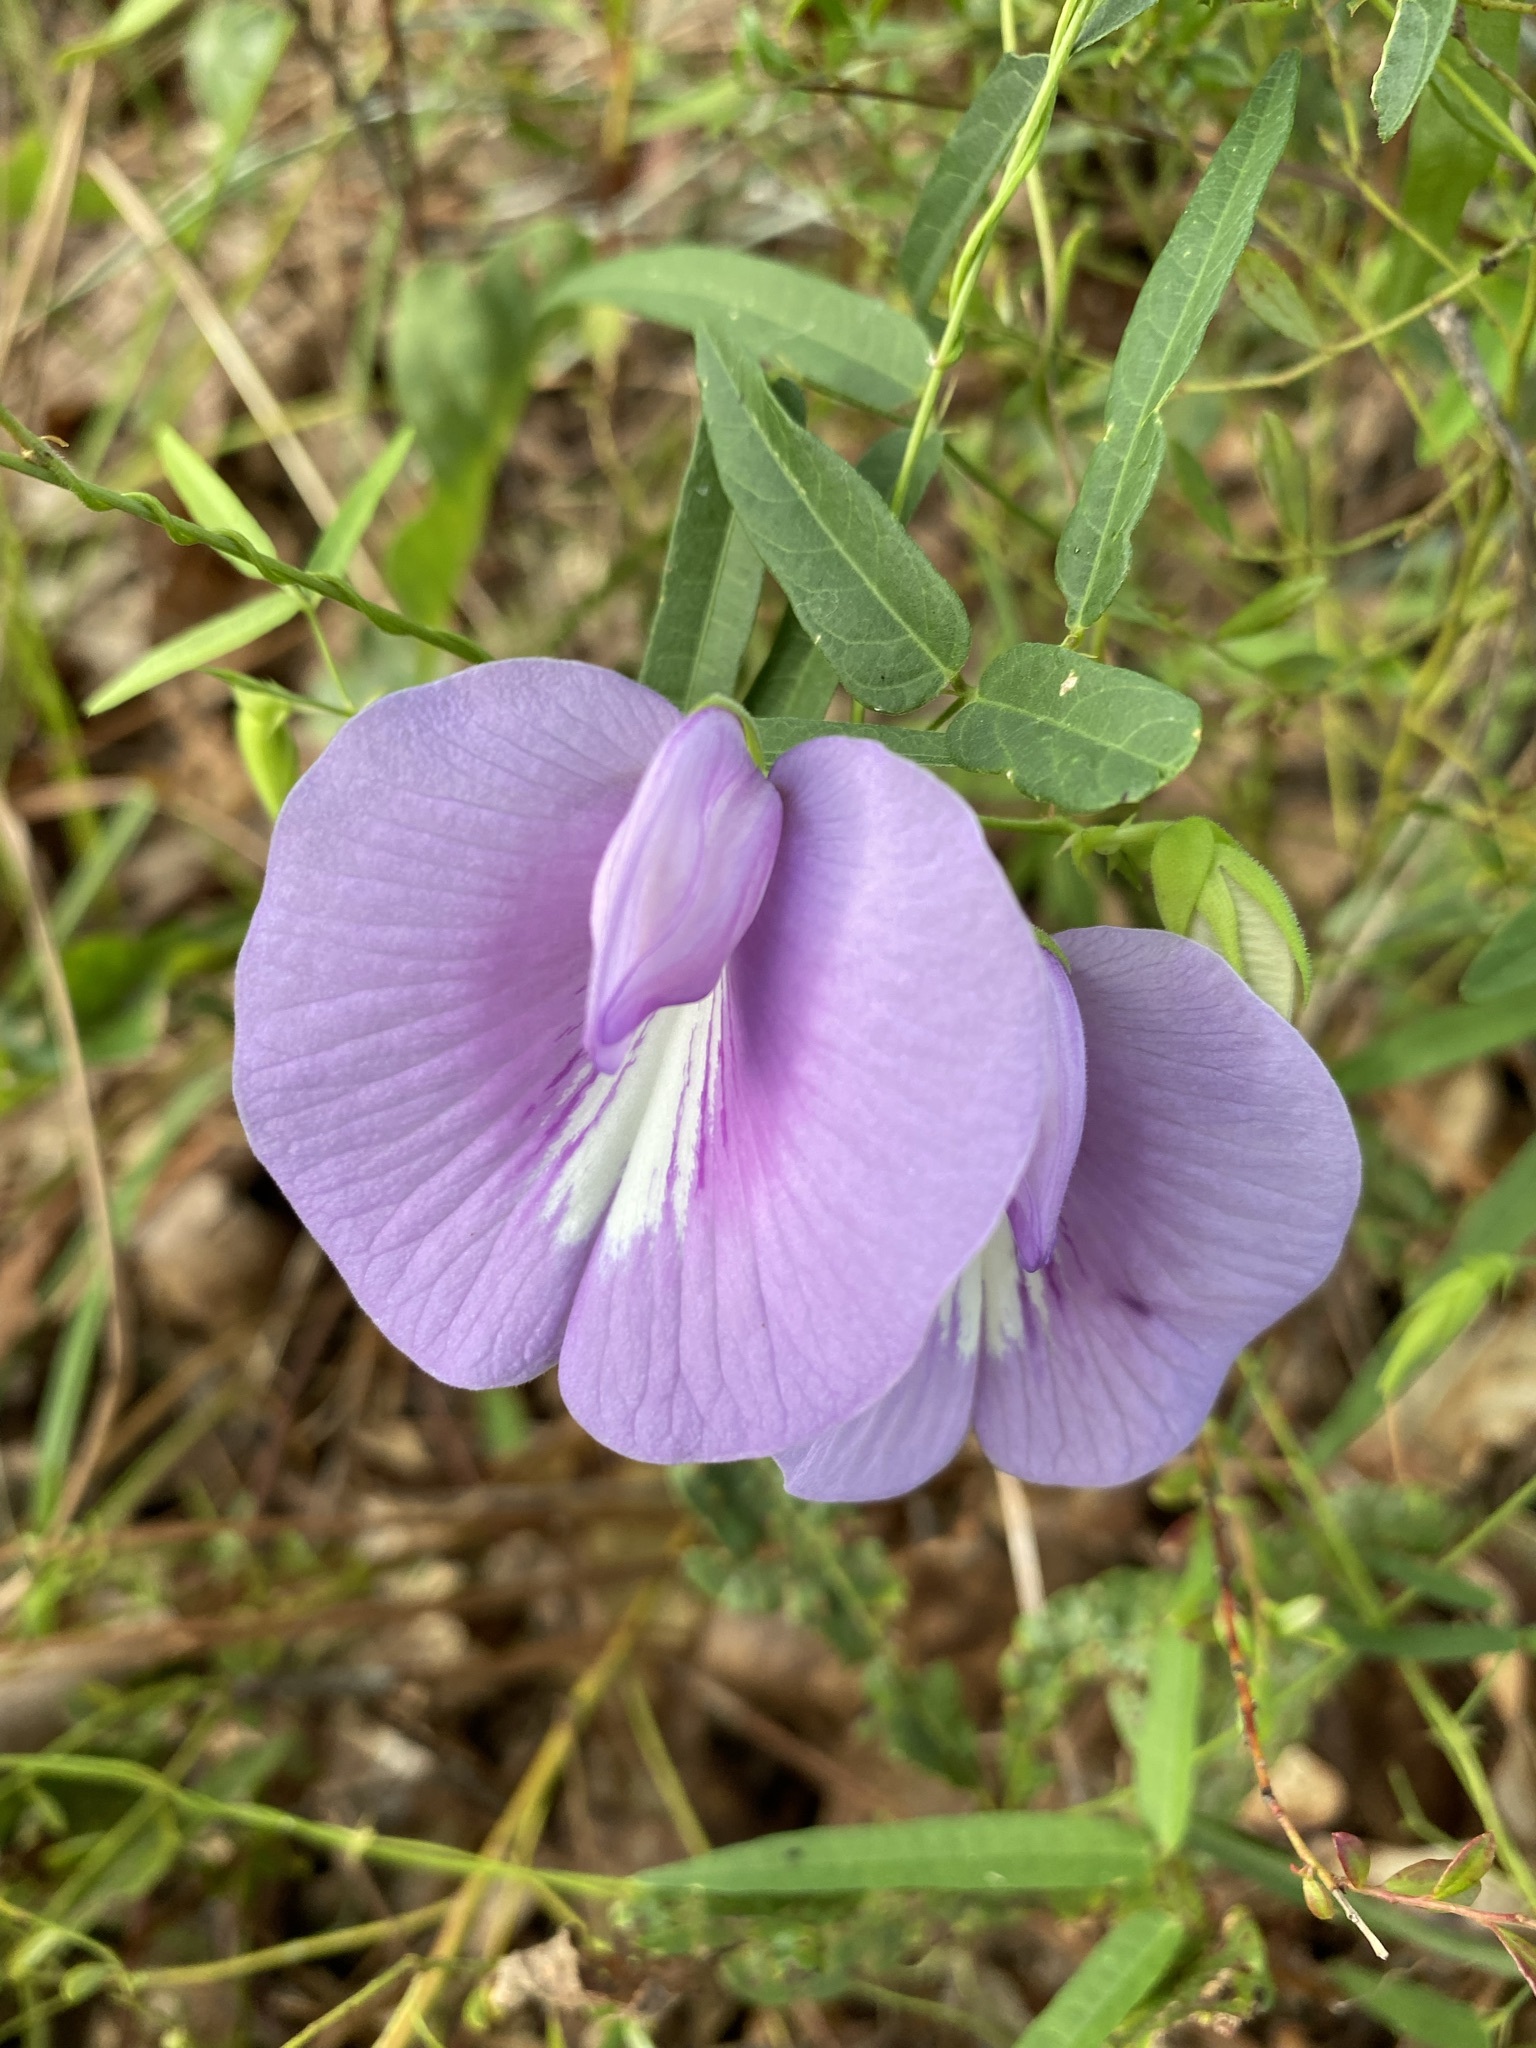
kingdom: Plantae
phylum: Tracheophyta
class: Magnoliopsida
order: Fabales
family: Fabaceae
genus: Centrosema
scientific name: Centrosema virginianum
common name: Butterfly-pea
